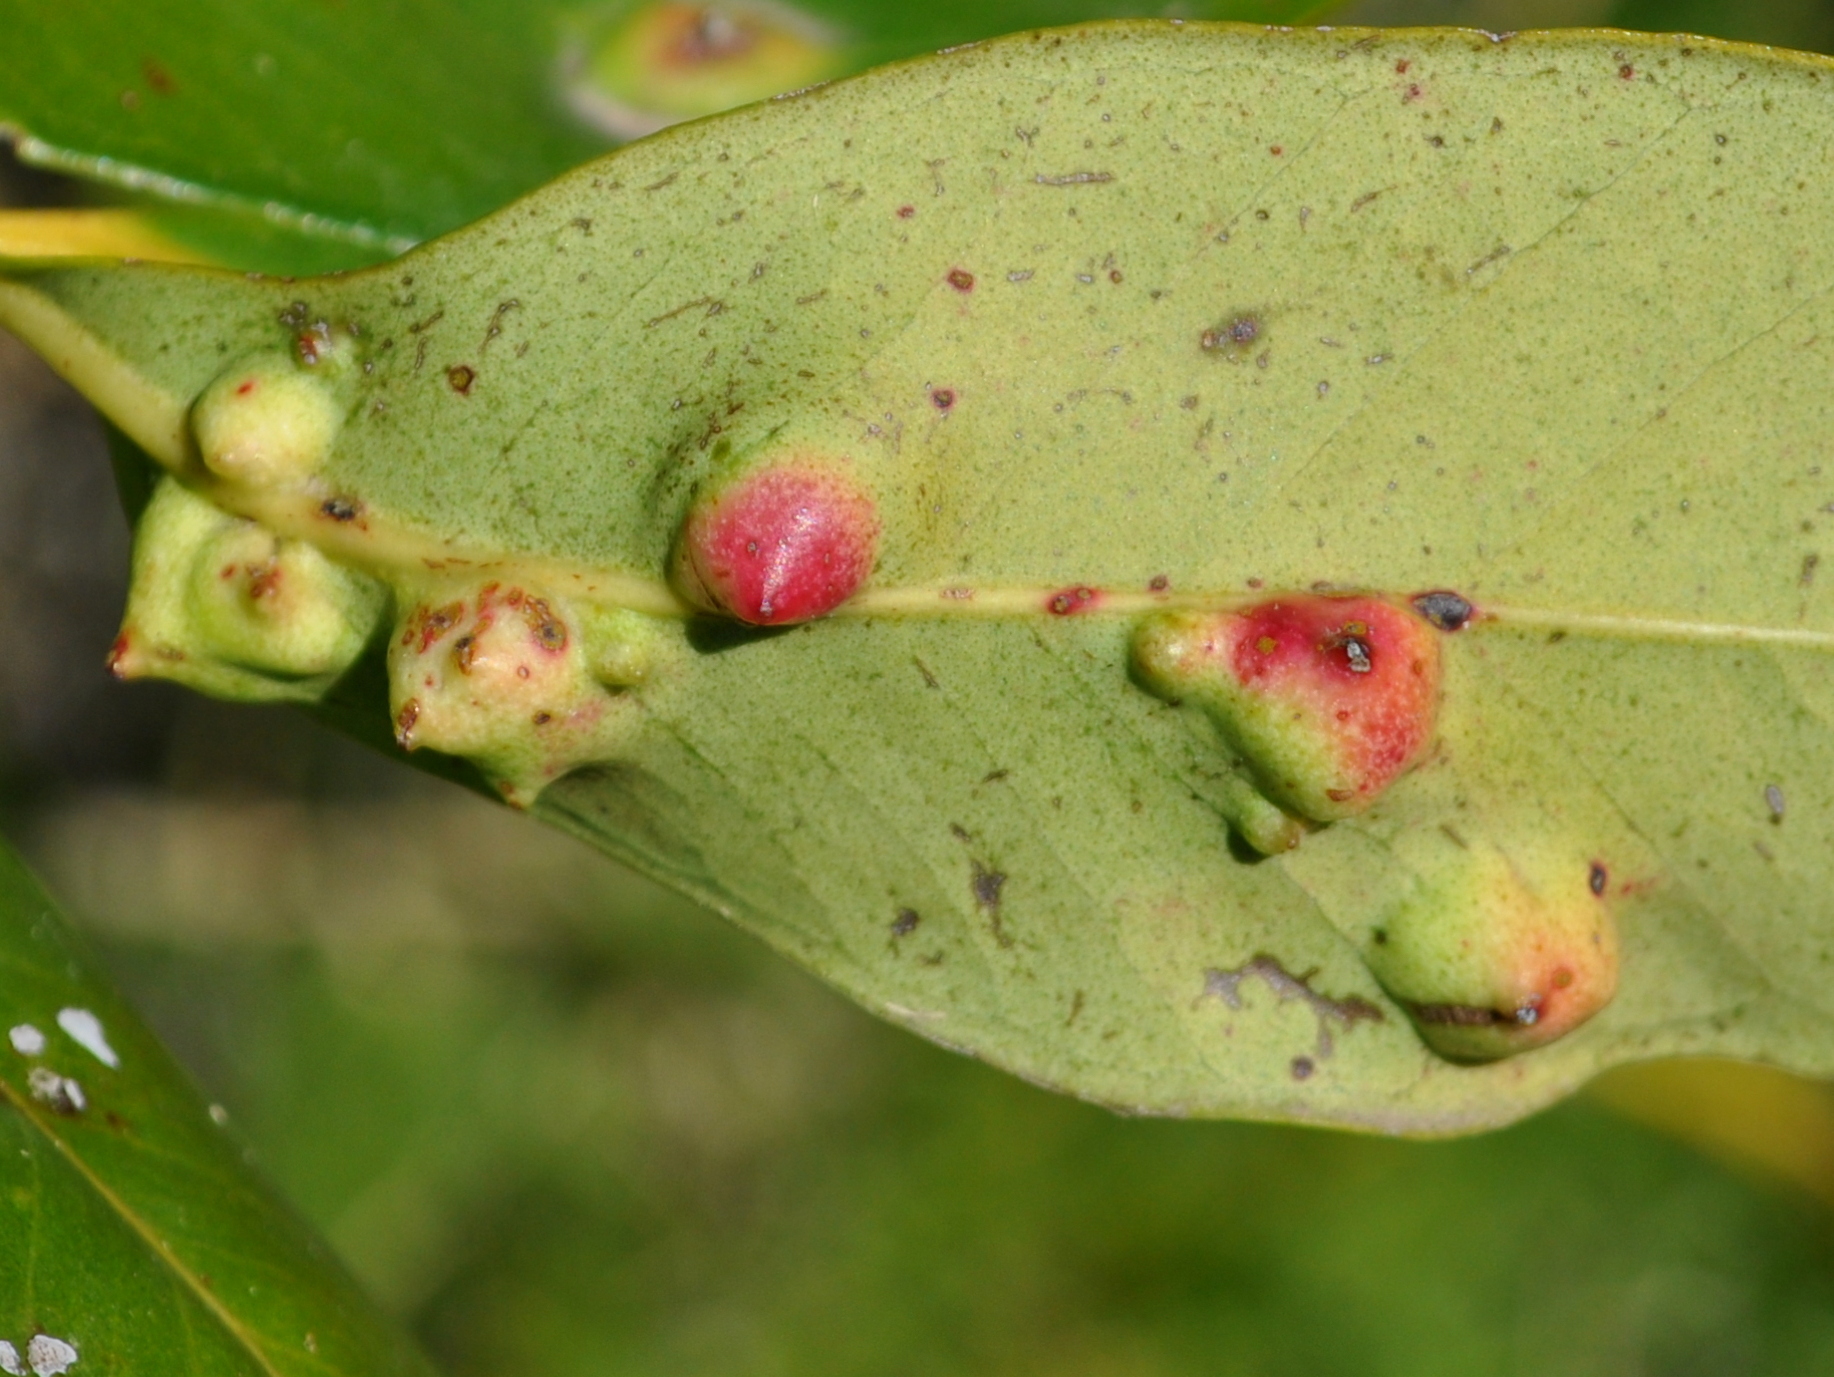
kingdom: Animalia
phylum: Arthropoda
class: Insecta
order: Hemiptera
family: Eriococcidae
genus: Tectococcus
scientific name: Tectococcus ovatus
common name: Eriococcid scale
